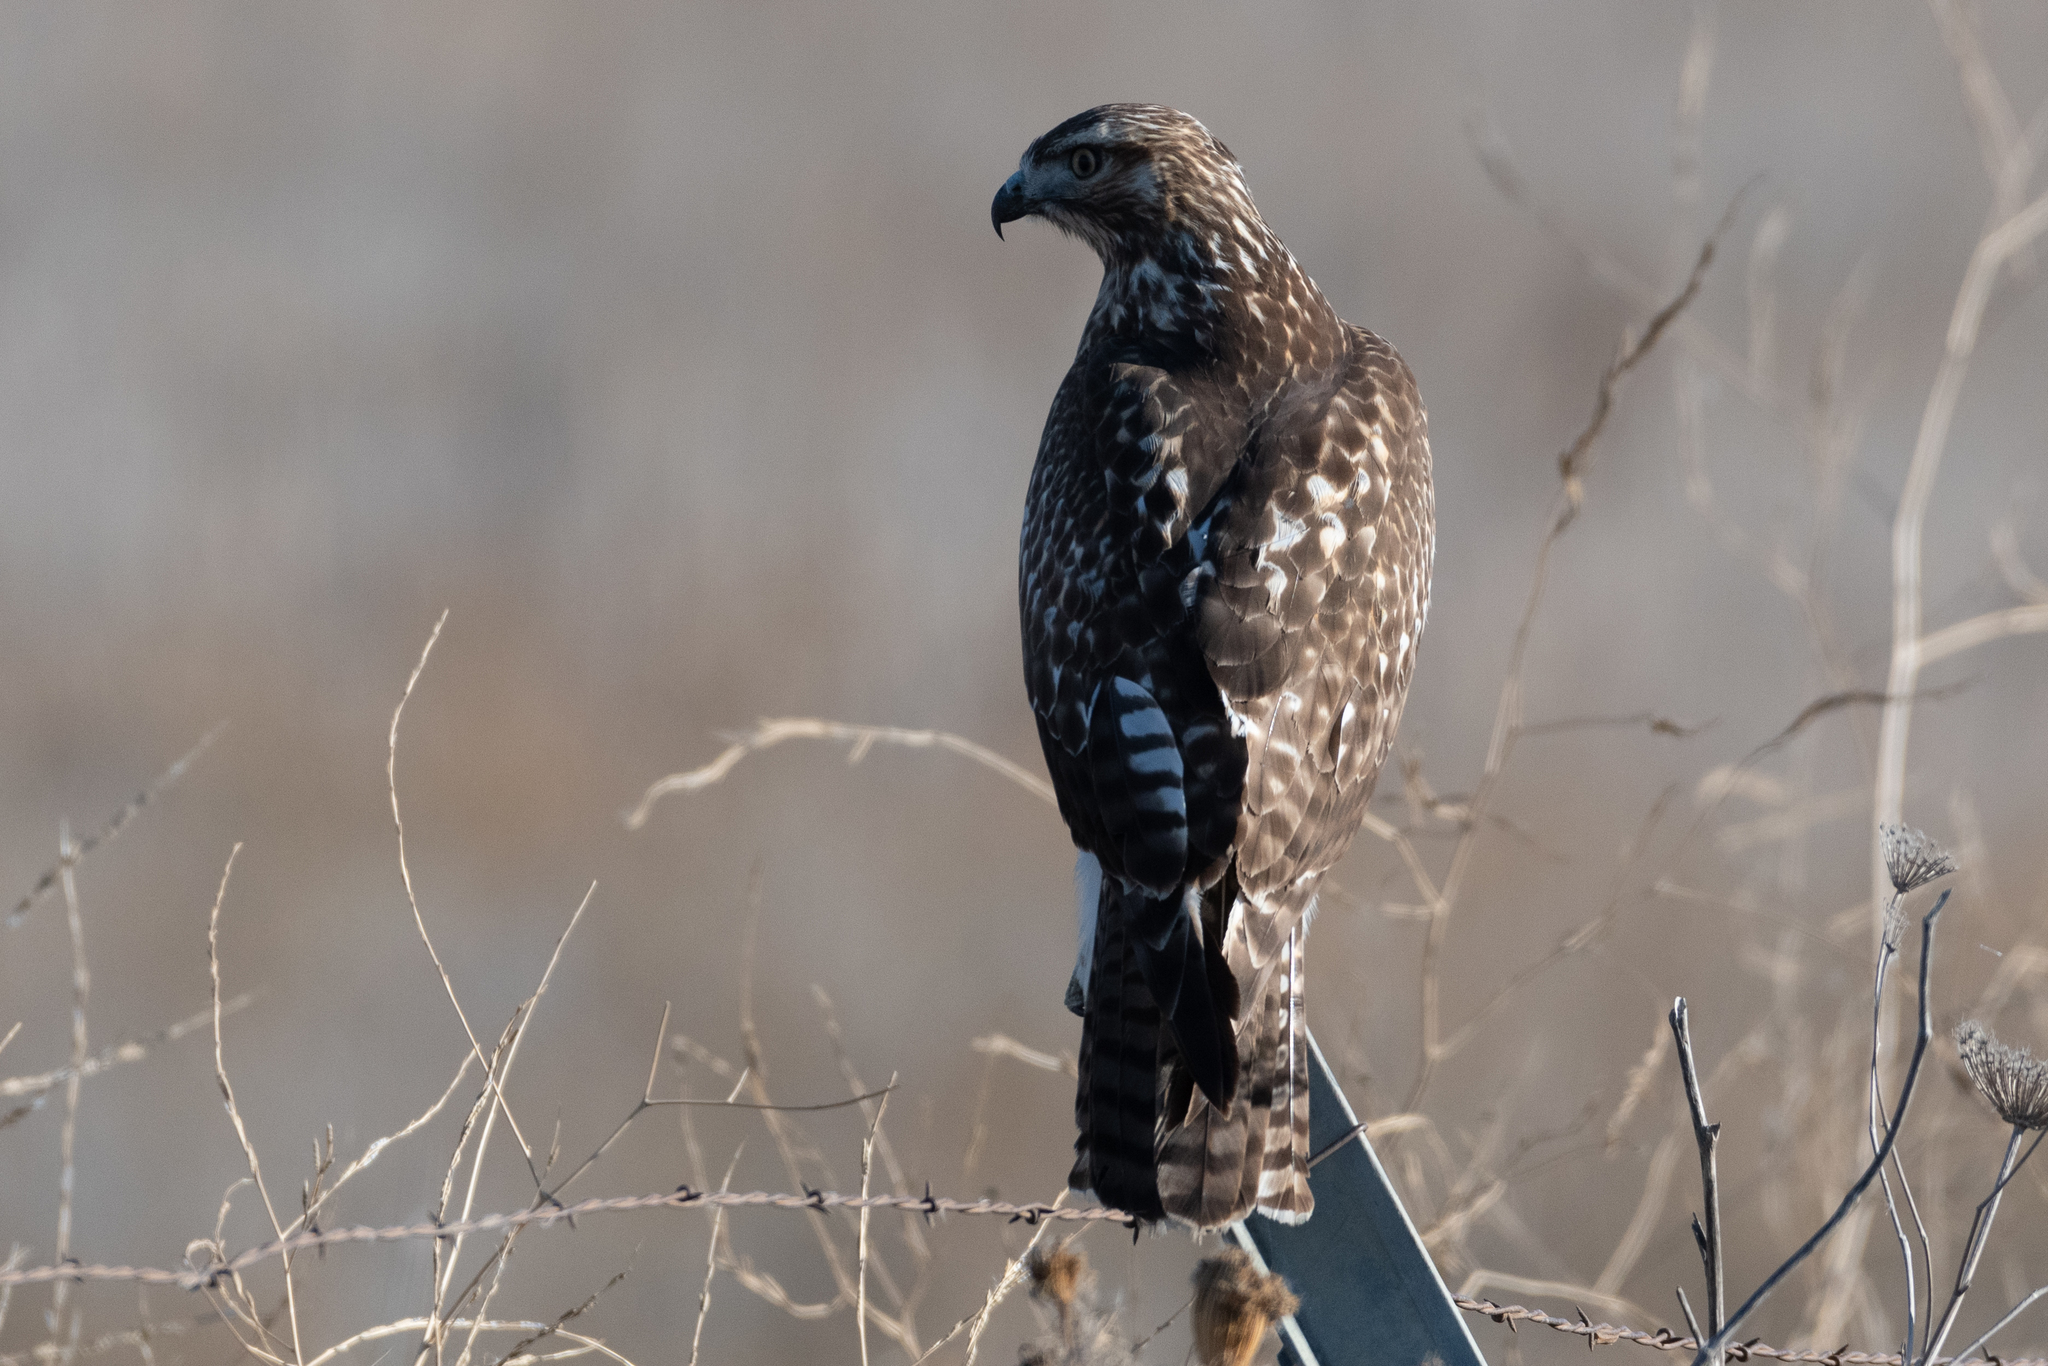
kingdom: Animalia
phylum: Chordata
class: Aves
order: Accipitriformes
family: Accipitridae
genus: Buteo
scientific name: Buteo jamaicensis
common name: Red-tailed hawk
